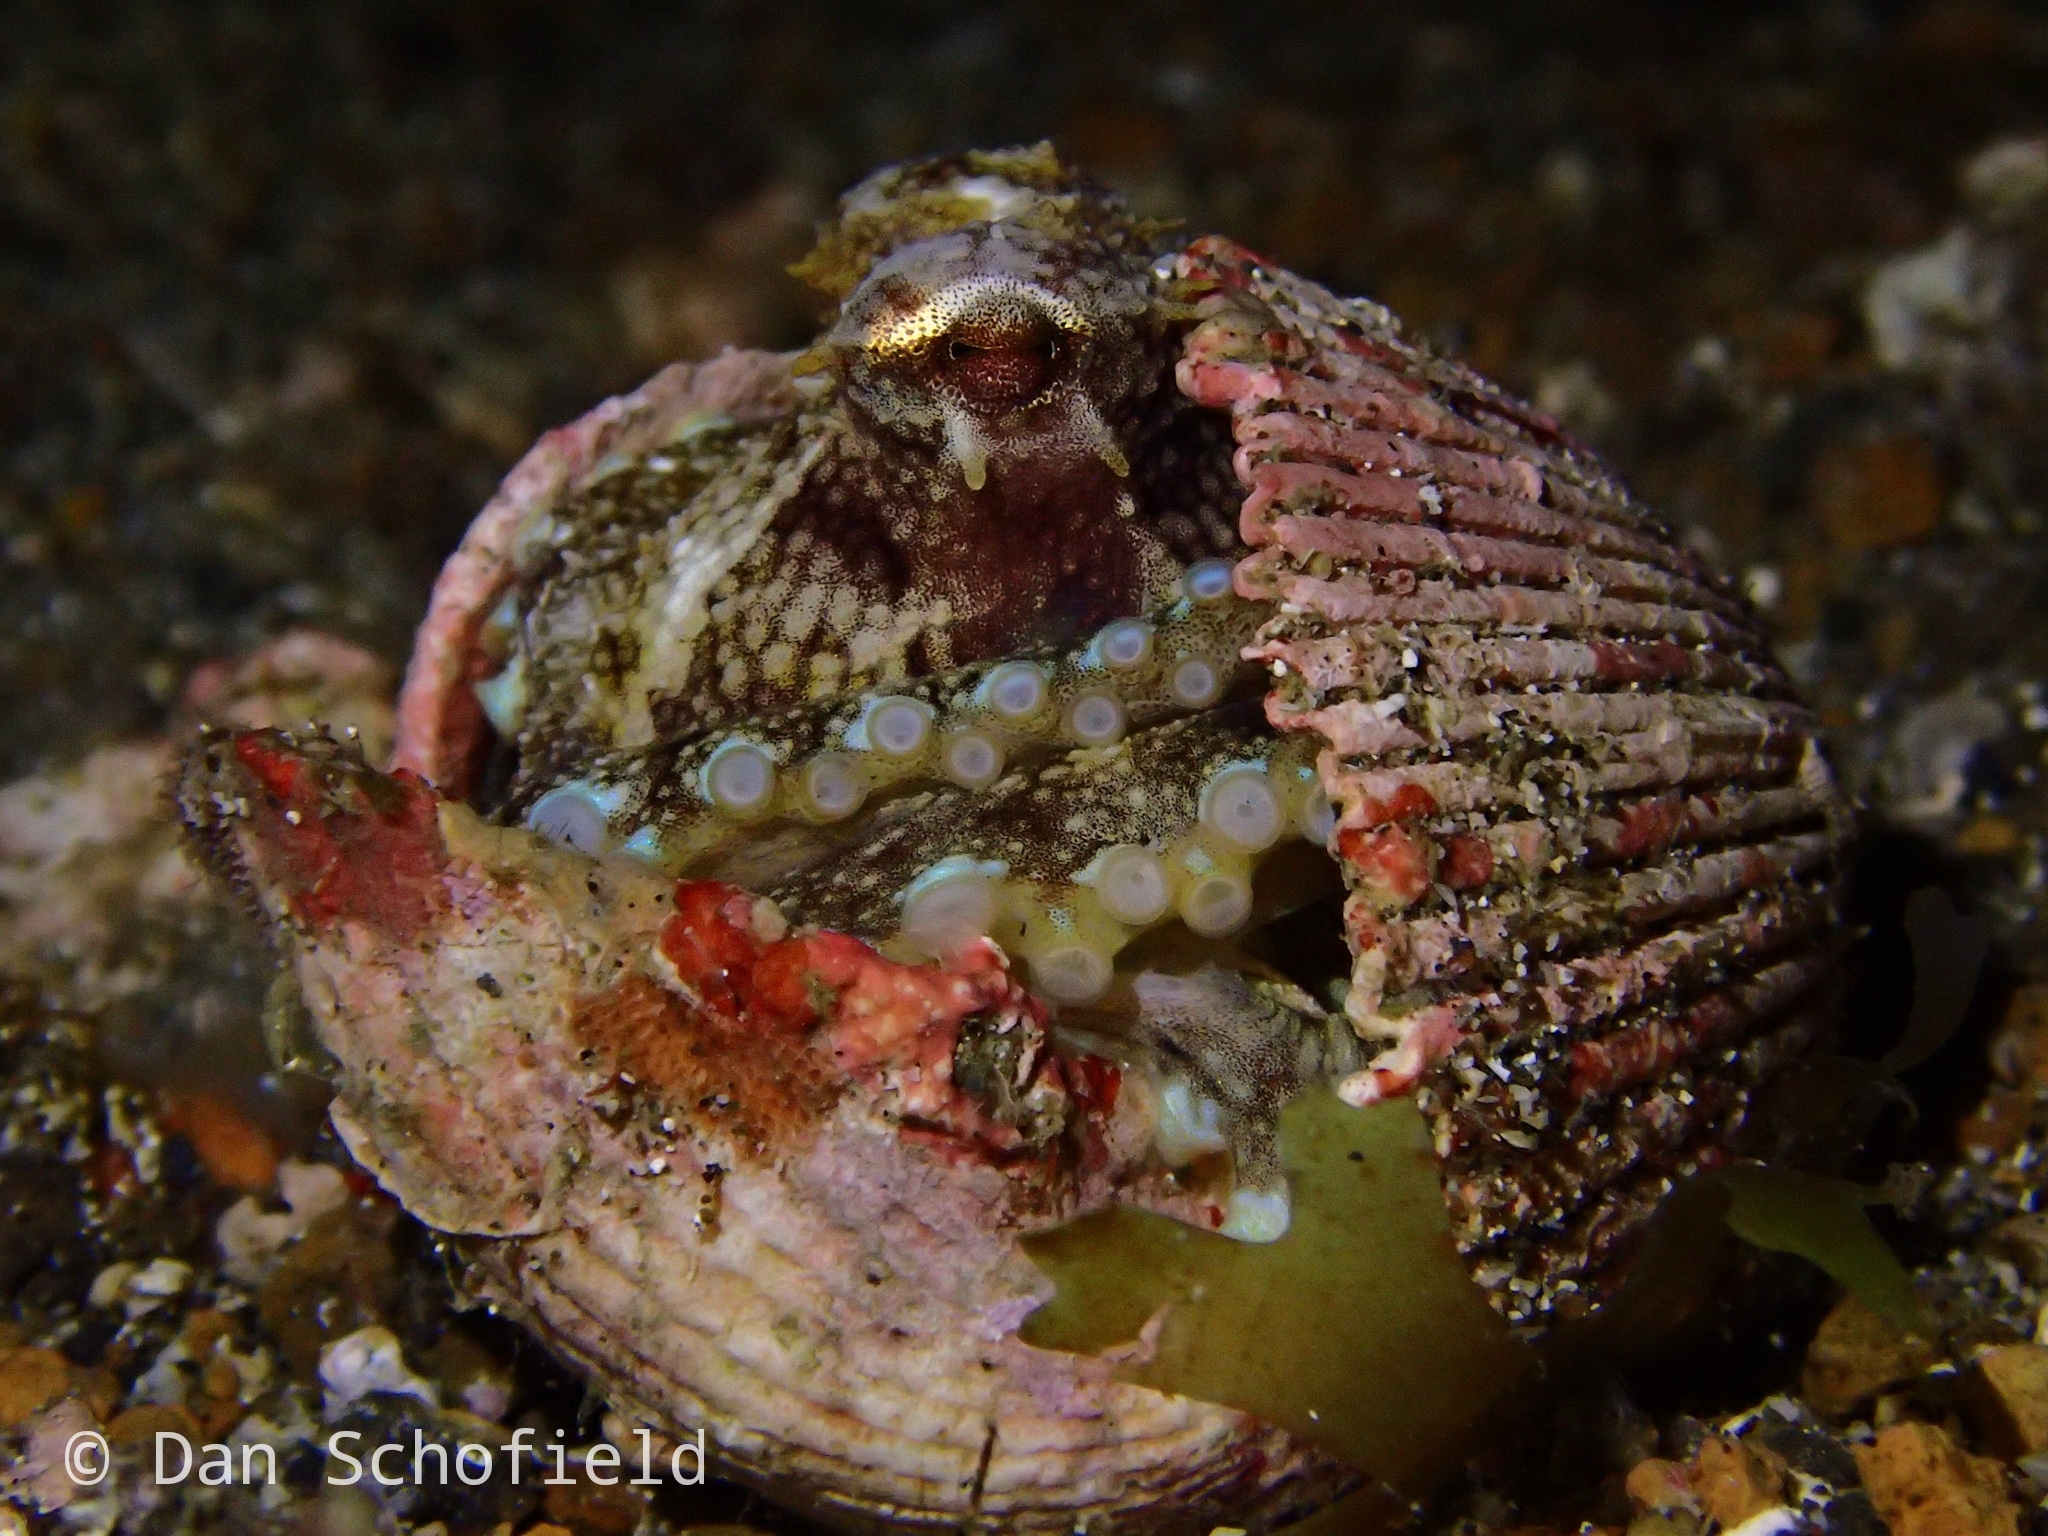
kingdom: Animalia
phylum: Mollusca
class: Cephalopoda
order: Octopoda
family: Octopodidae
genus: Amphioctopus
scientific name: Amphioctopus marginatus
